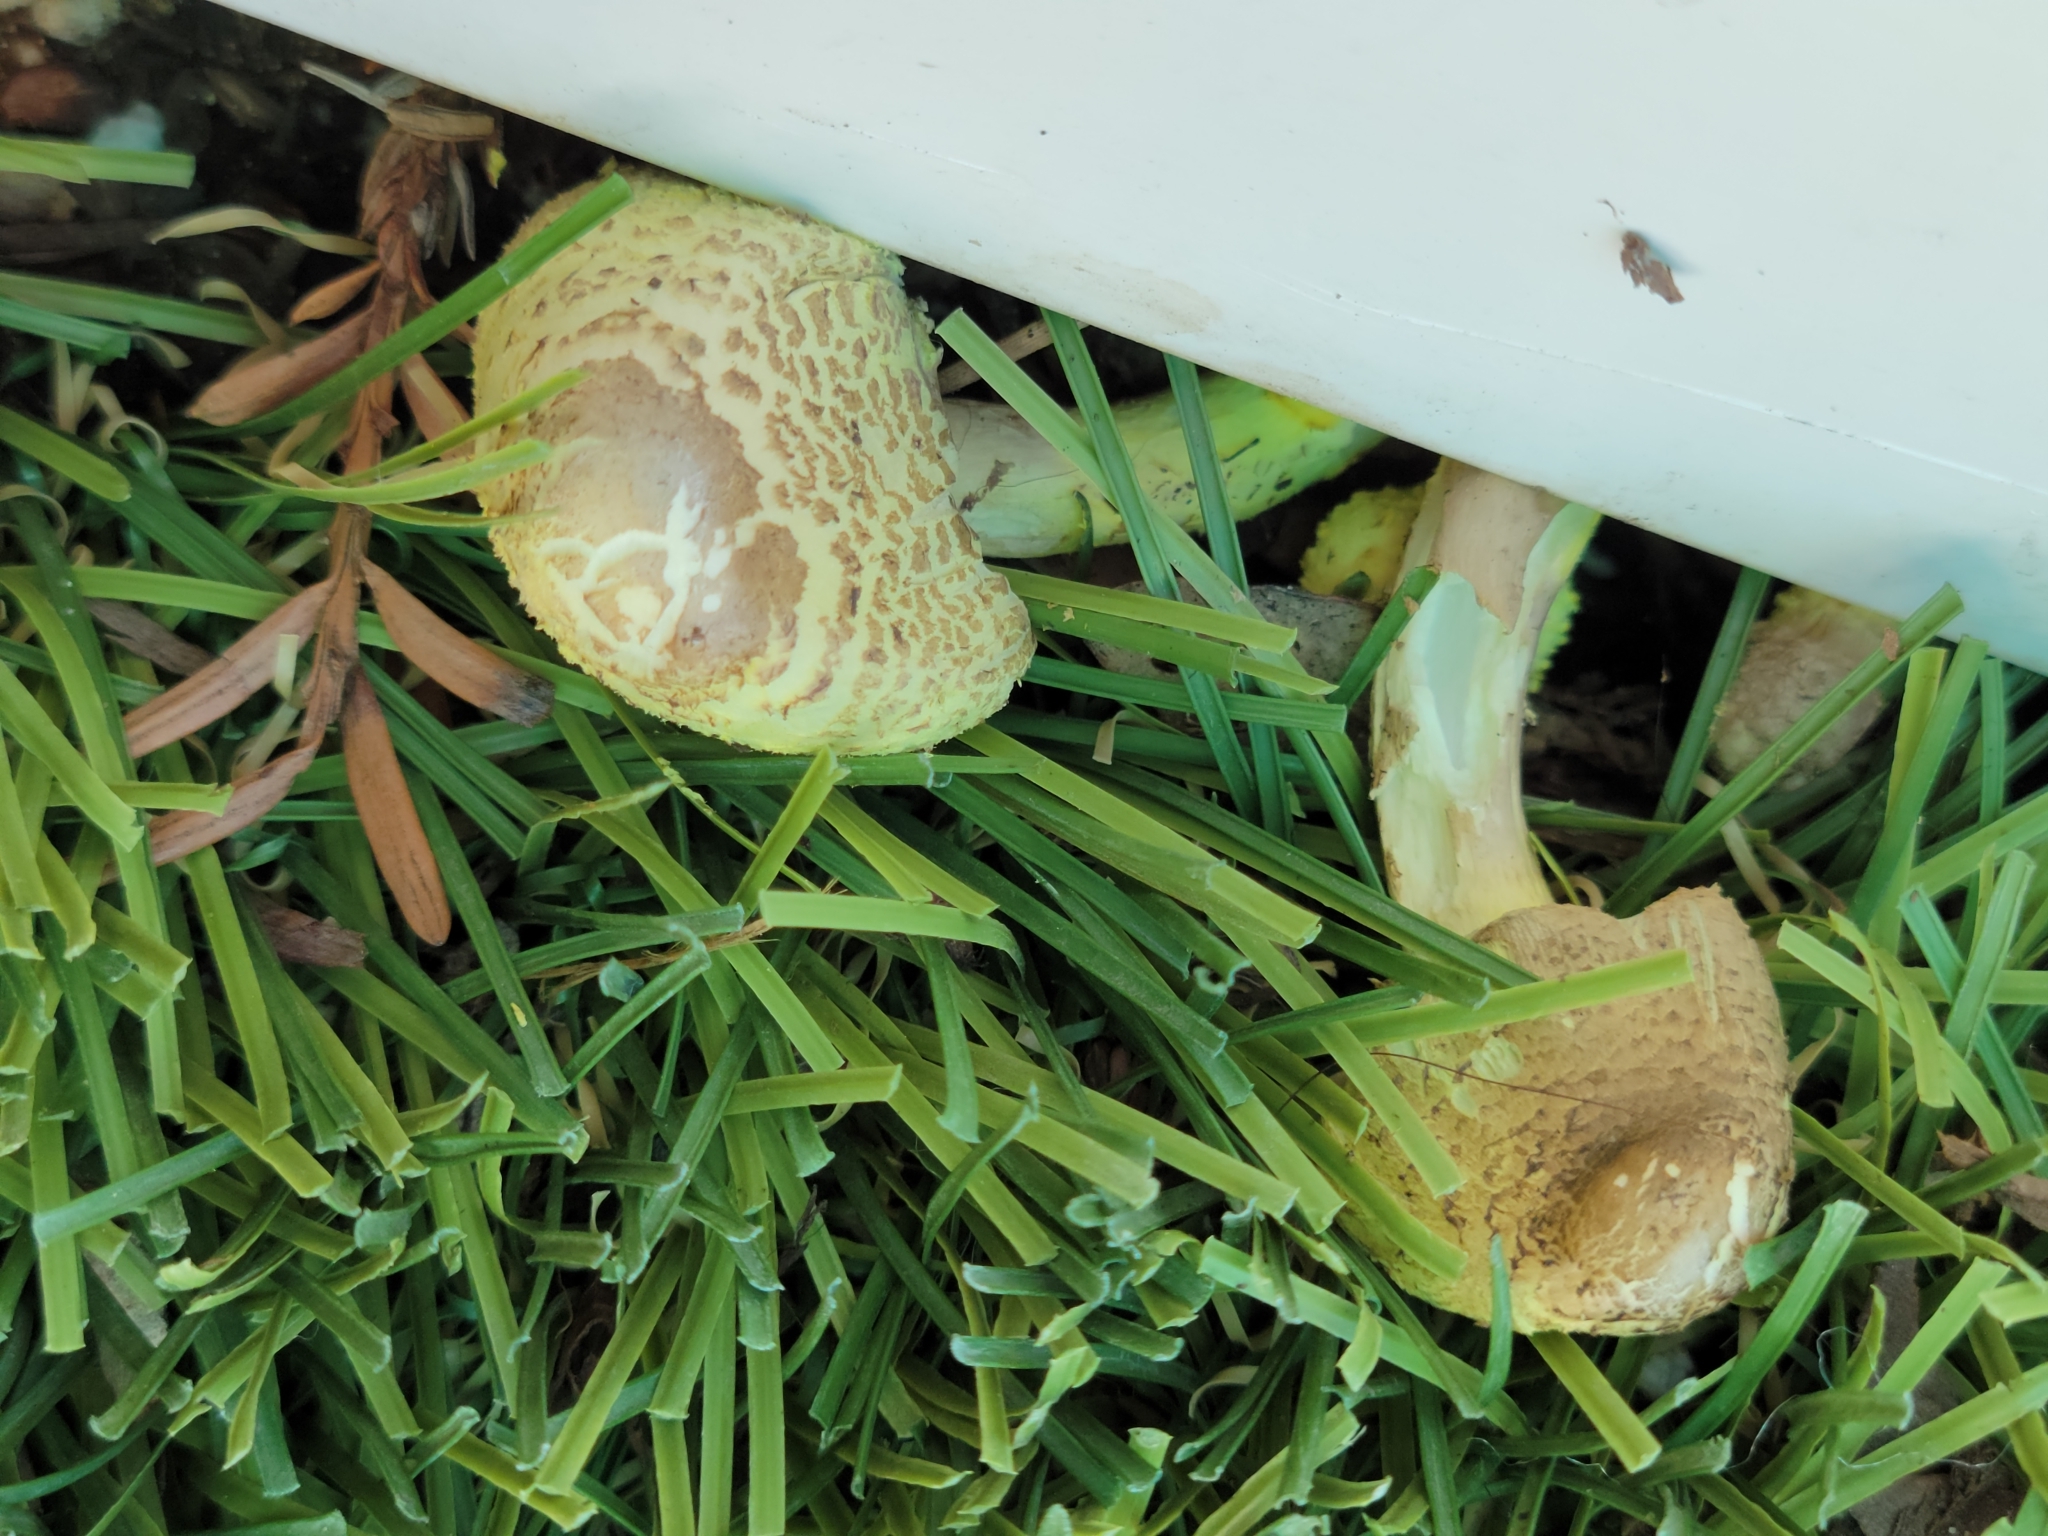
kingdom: Fungi
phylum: Basidiomycota
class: Agaricomycetes
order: Agaricales
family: Agaricaceae
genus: Leucocoprinus
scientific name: Leucocoprinus birnbaumii
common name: Plantpot dapperling
